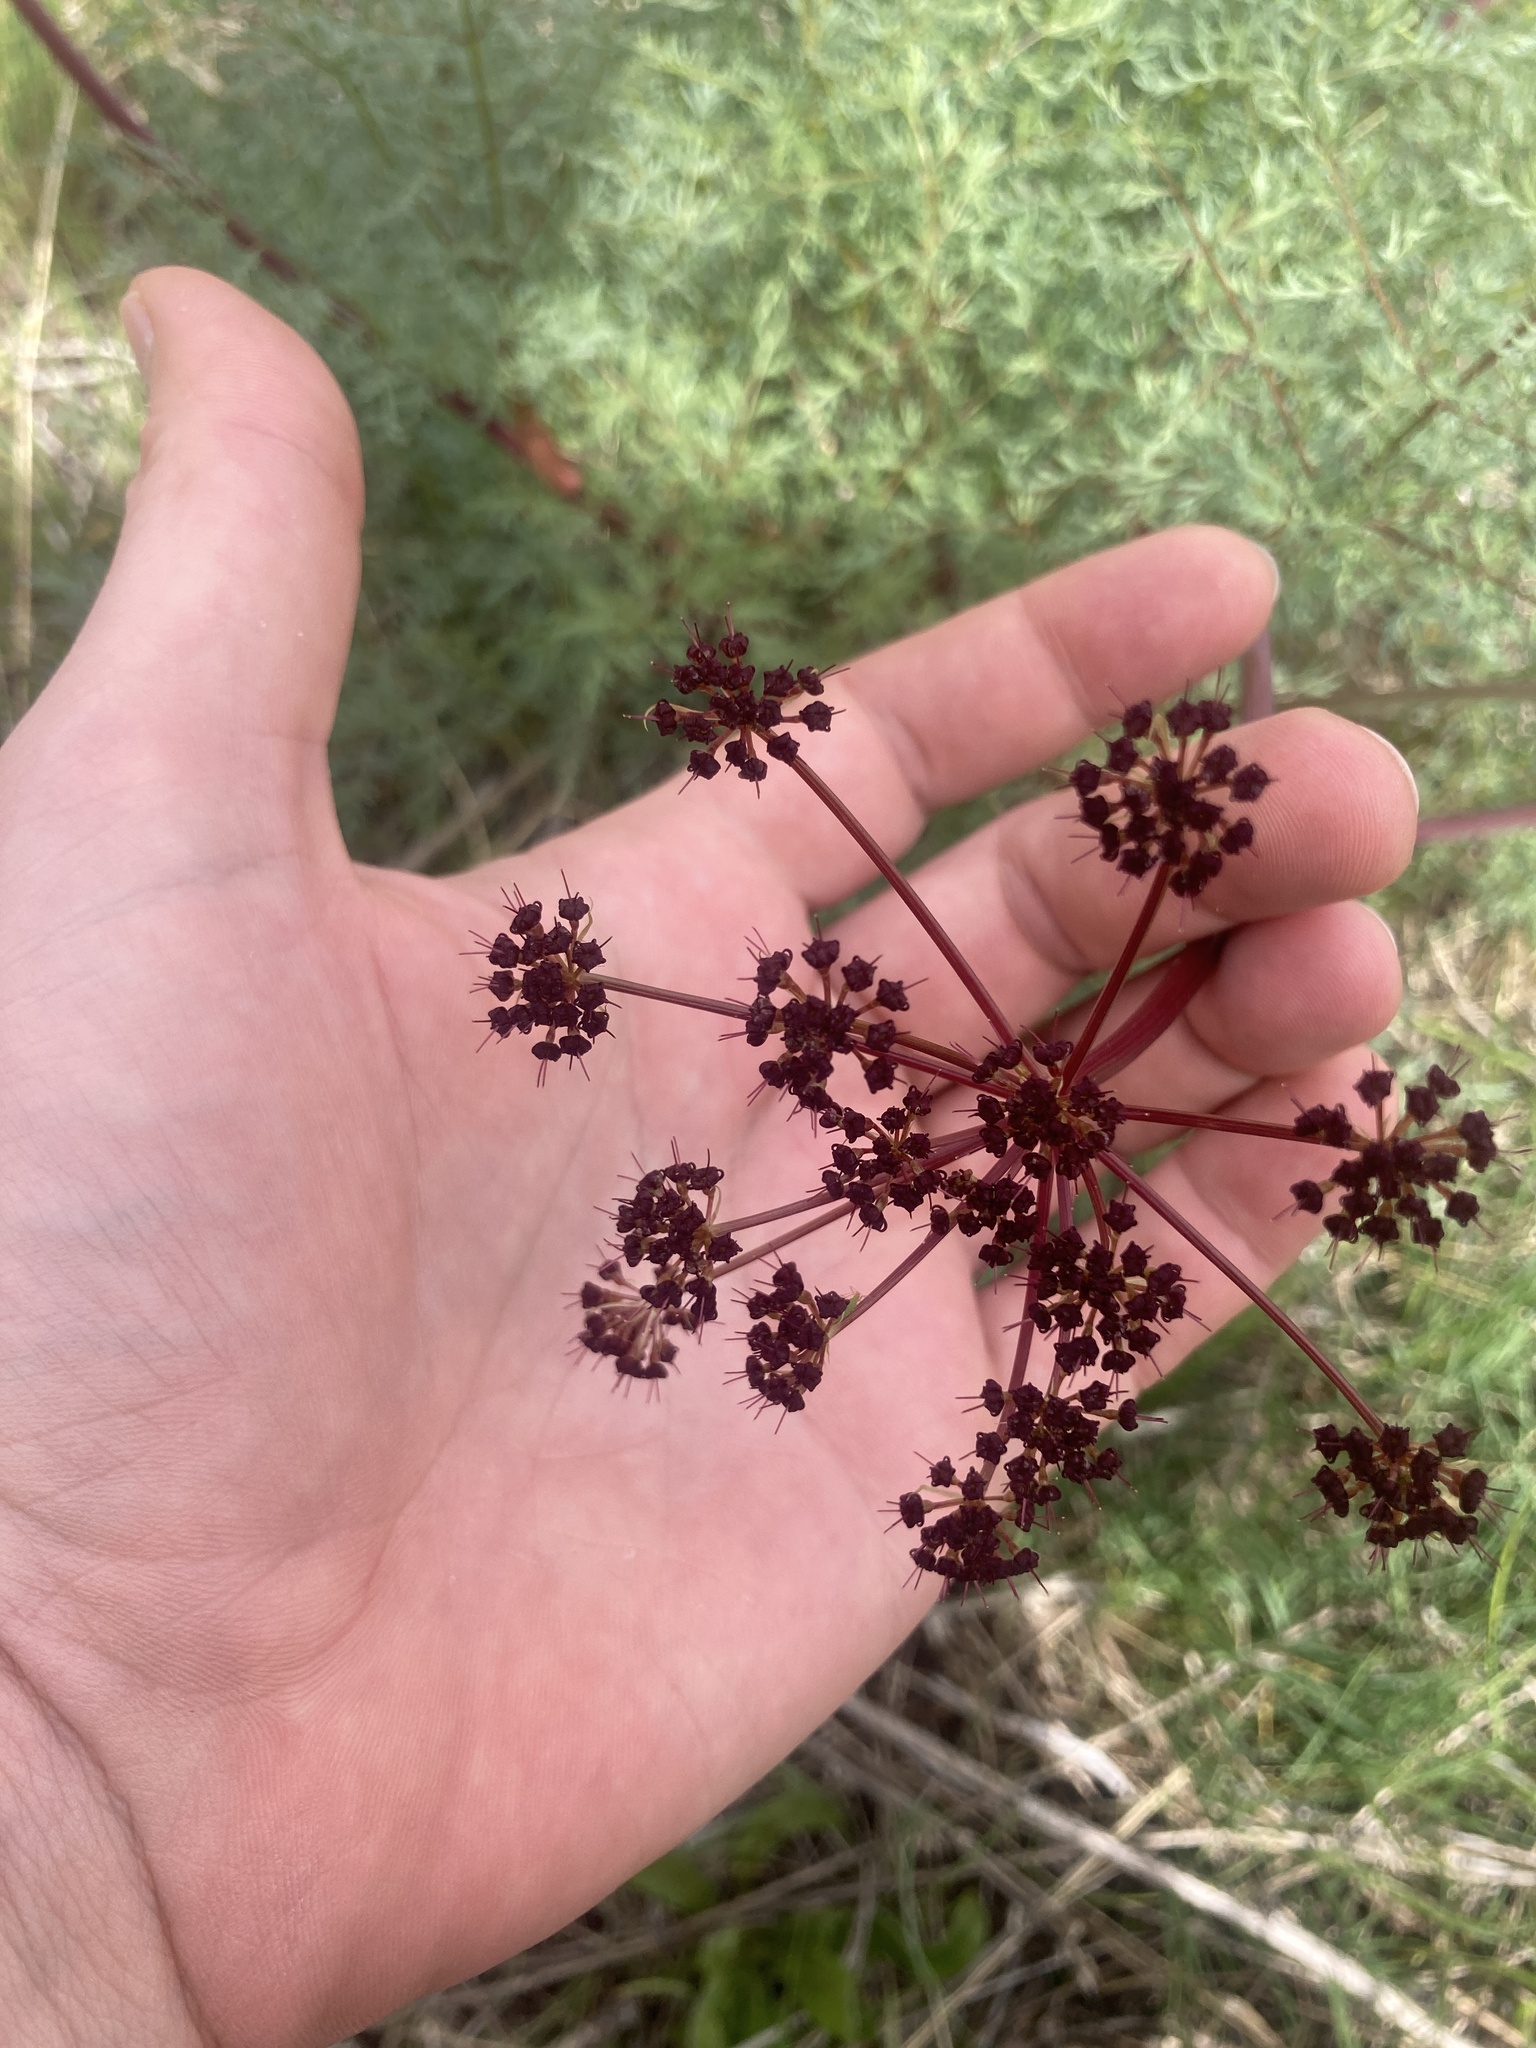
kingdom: Plantae
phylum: Tracheophyta
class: Magnoliopsida
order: Apiales
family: Apiaceae
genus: Lomatium
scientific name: Lomatium multifidum
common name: Carrot-leaved biscuitroot
